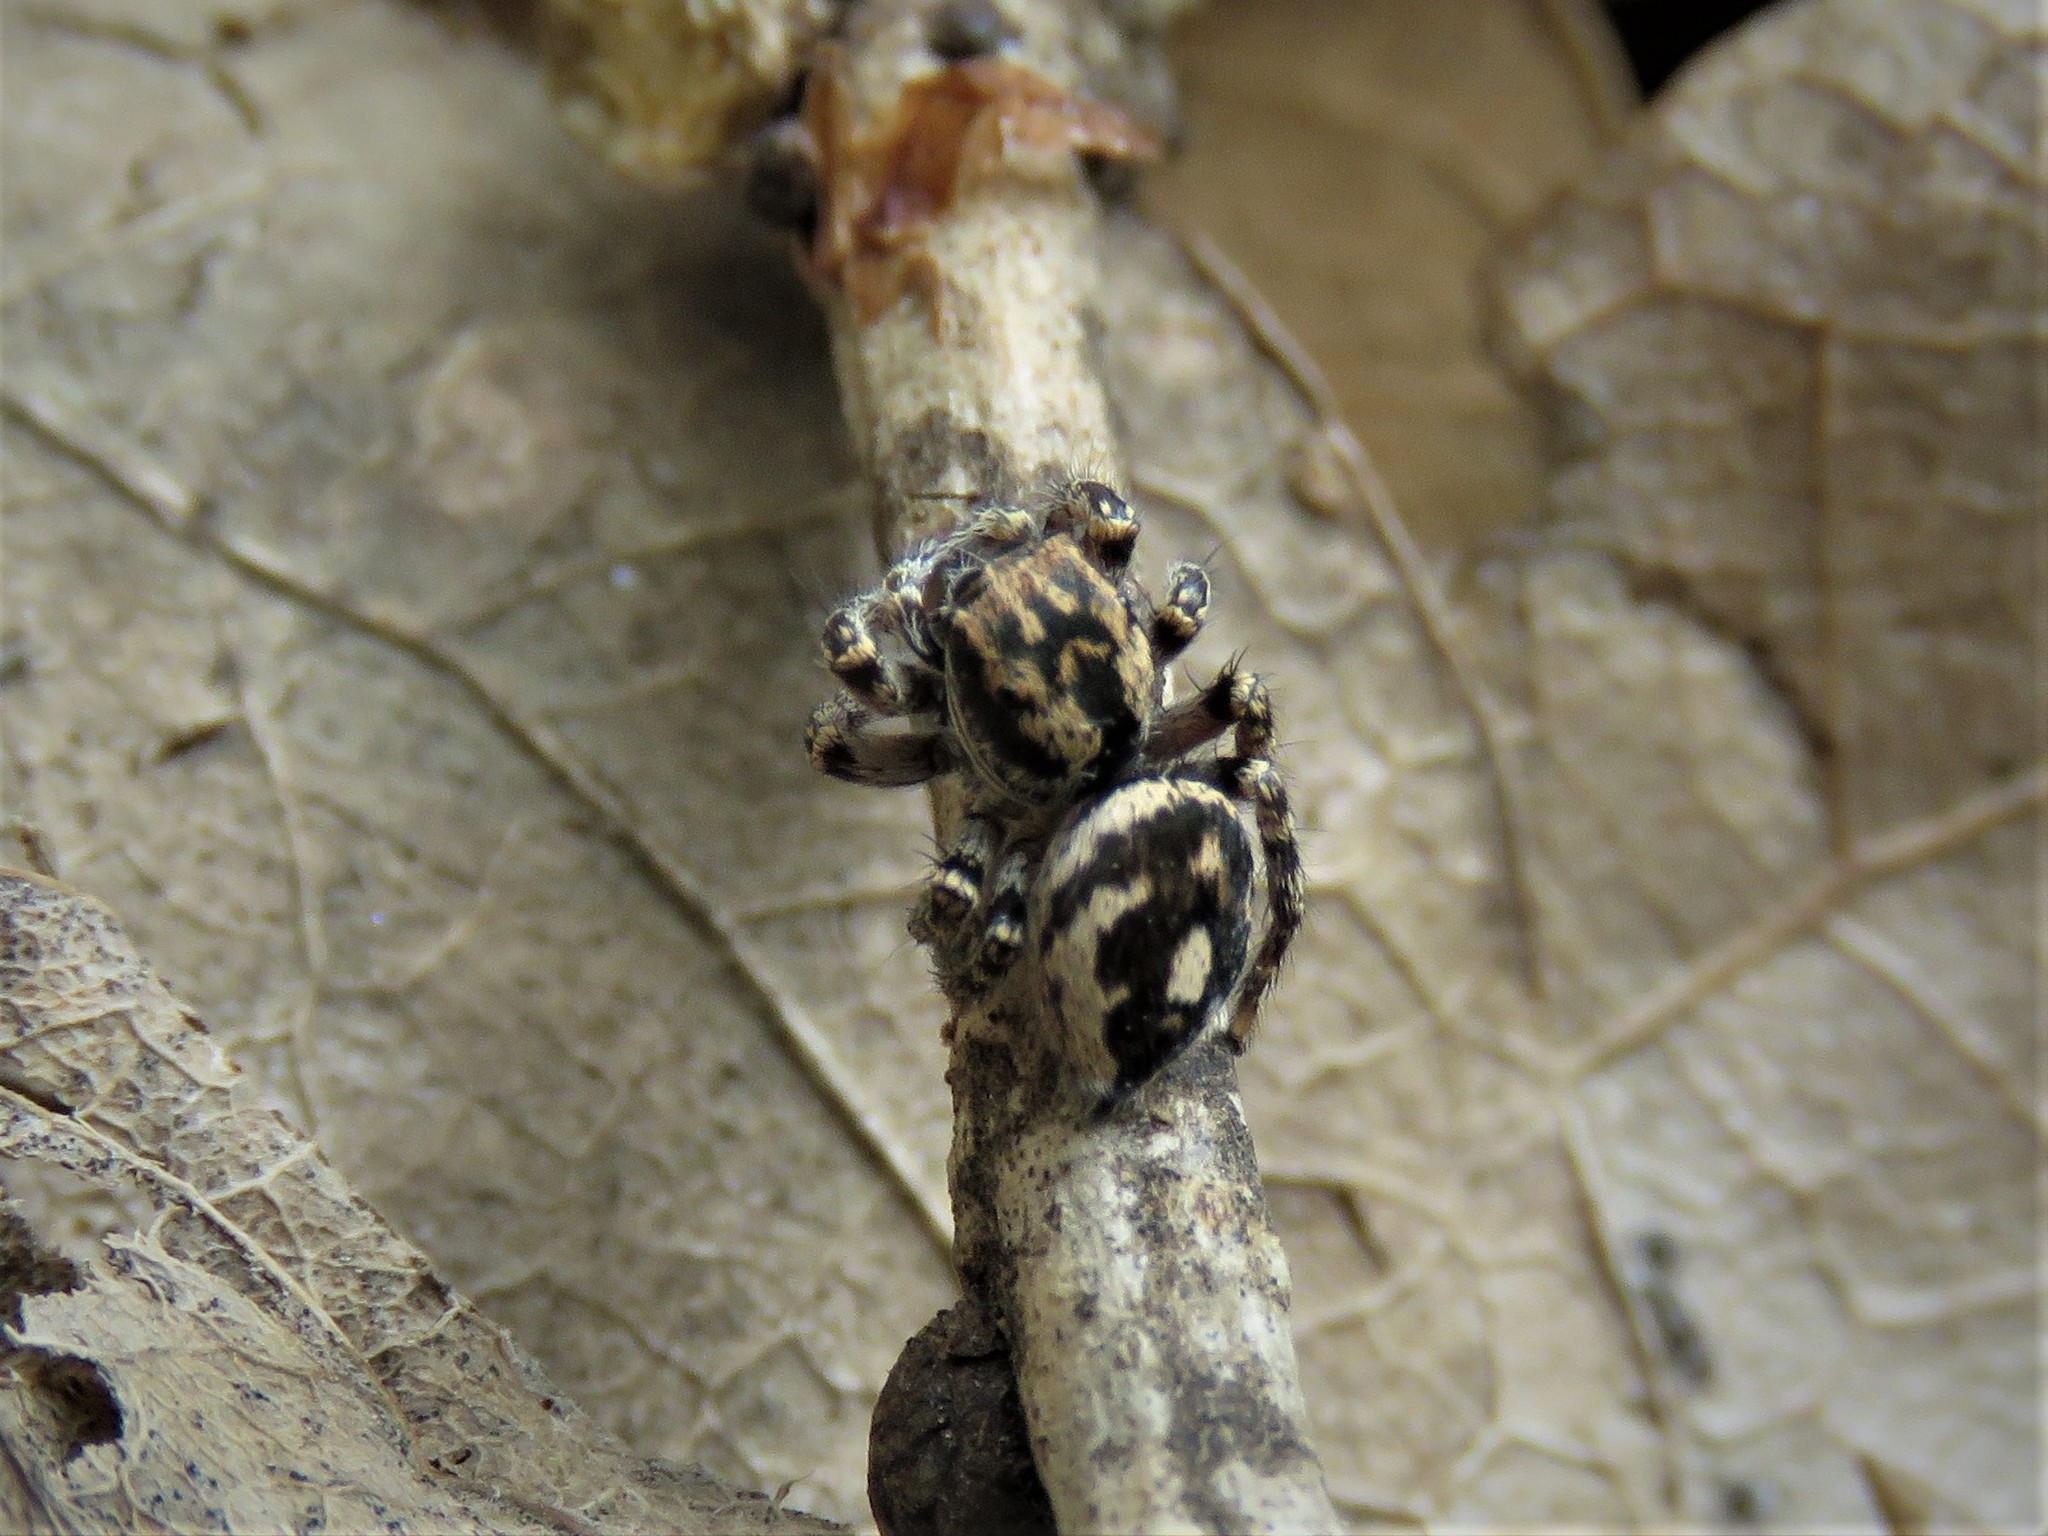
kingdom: Animalia
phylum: Arthropoda
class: Arachnida
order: Araneae
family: Salticidae
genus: Habronattus
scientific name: Habronattus fallax
